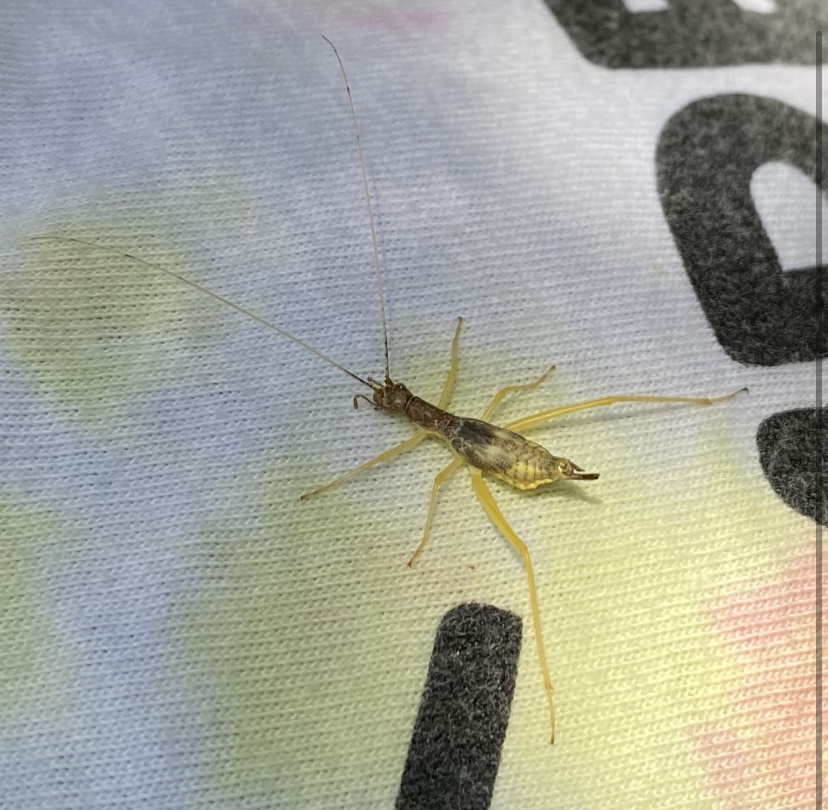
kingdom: Animalia
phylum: Arthropoda
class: Insecta
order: Orthoptera
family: Gryllidae
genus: Neoxabea
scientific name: Neoxabea bipunctata
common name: Two-spotted tree cricket
